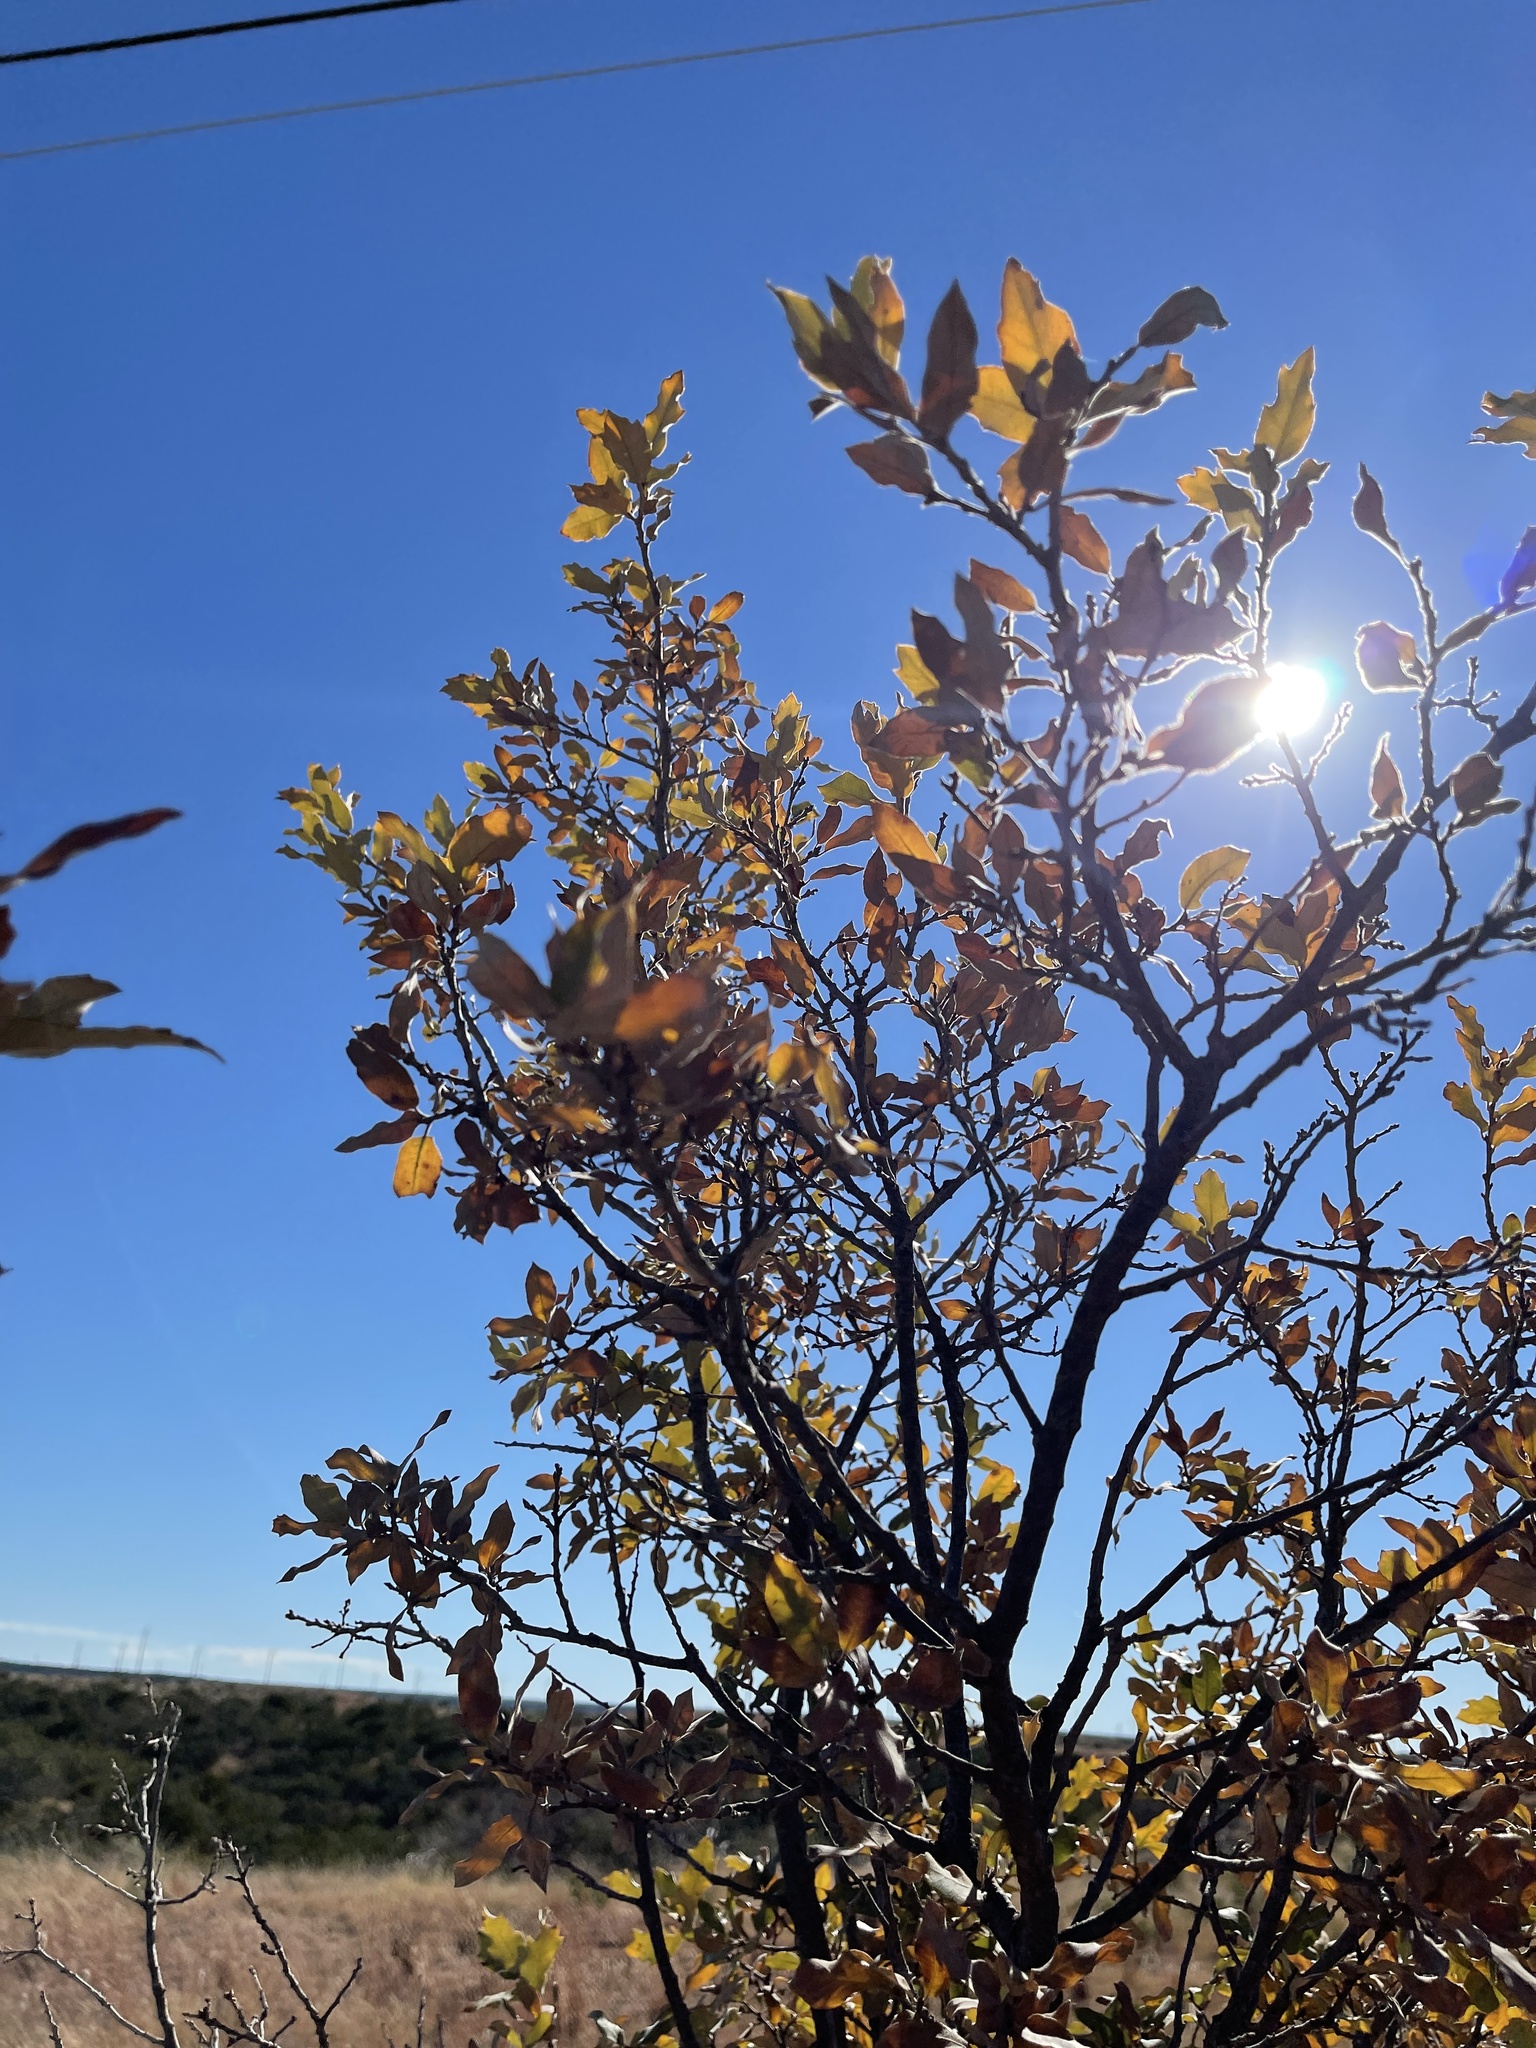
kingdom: Plantae
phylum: Tracheophyta
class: Magnoliopsida
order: Fagales
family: Fagaceae
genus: Quercus
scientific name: Quercus mohriana
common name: Mohr oak
